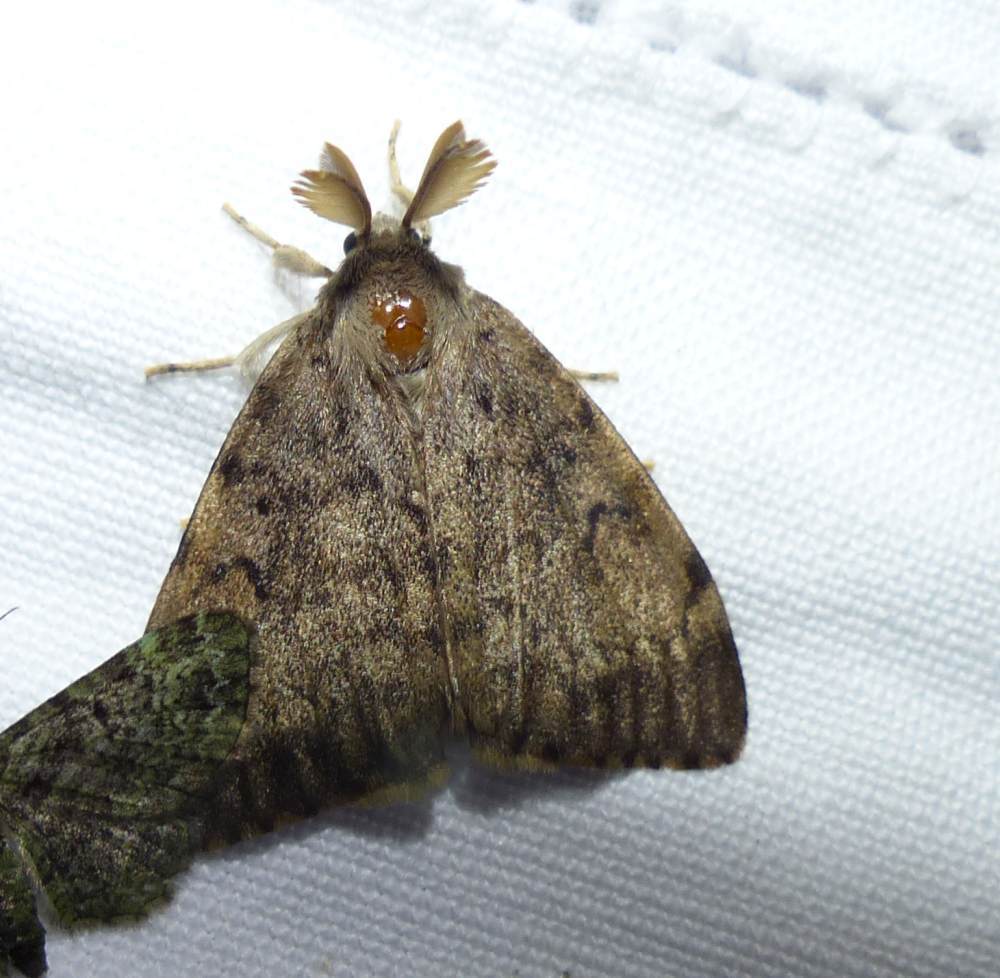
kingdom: Animalia
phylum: Arthropoda
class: Insecta
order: Lepidoptera
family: Erebidae
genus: Lymantria
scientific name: Lymantria dispar
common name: Gypsy moth
